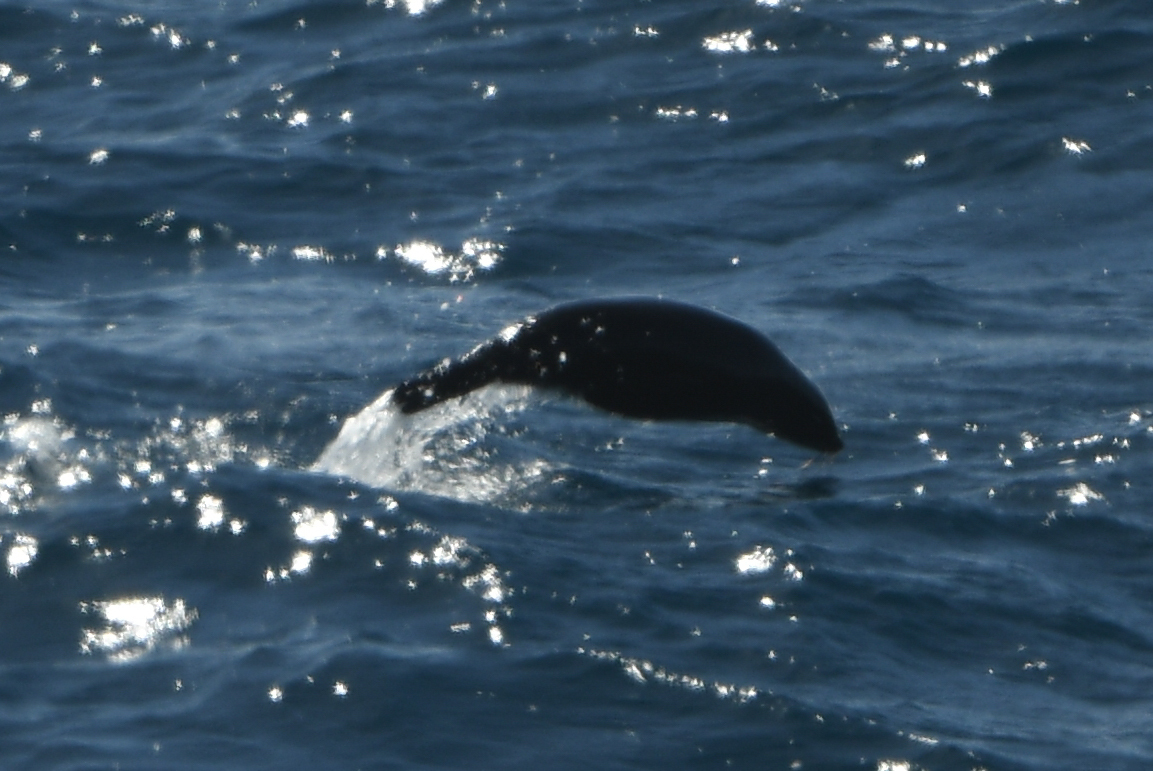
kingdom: Animalia
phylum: Chordata
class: Mammalia
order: Carnivora
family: Otariidae
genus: Arctocephalus
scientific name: Arctocephalus forsteri
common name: New zealand fur seal
